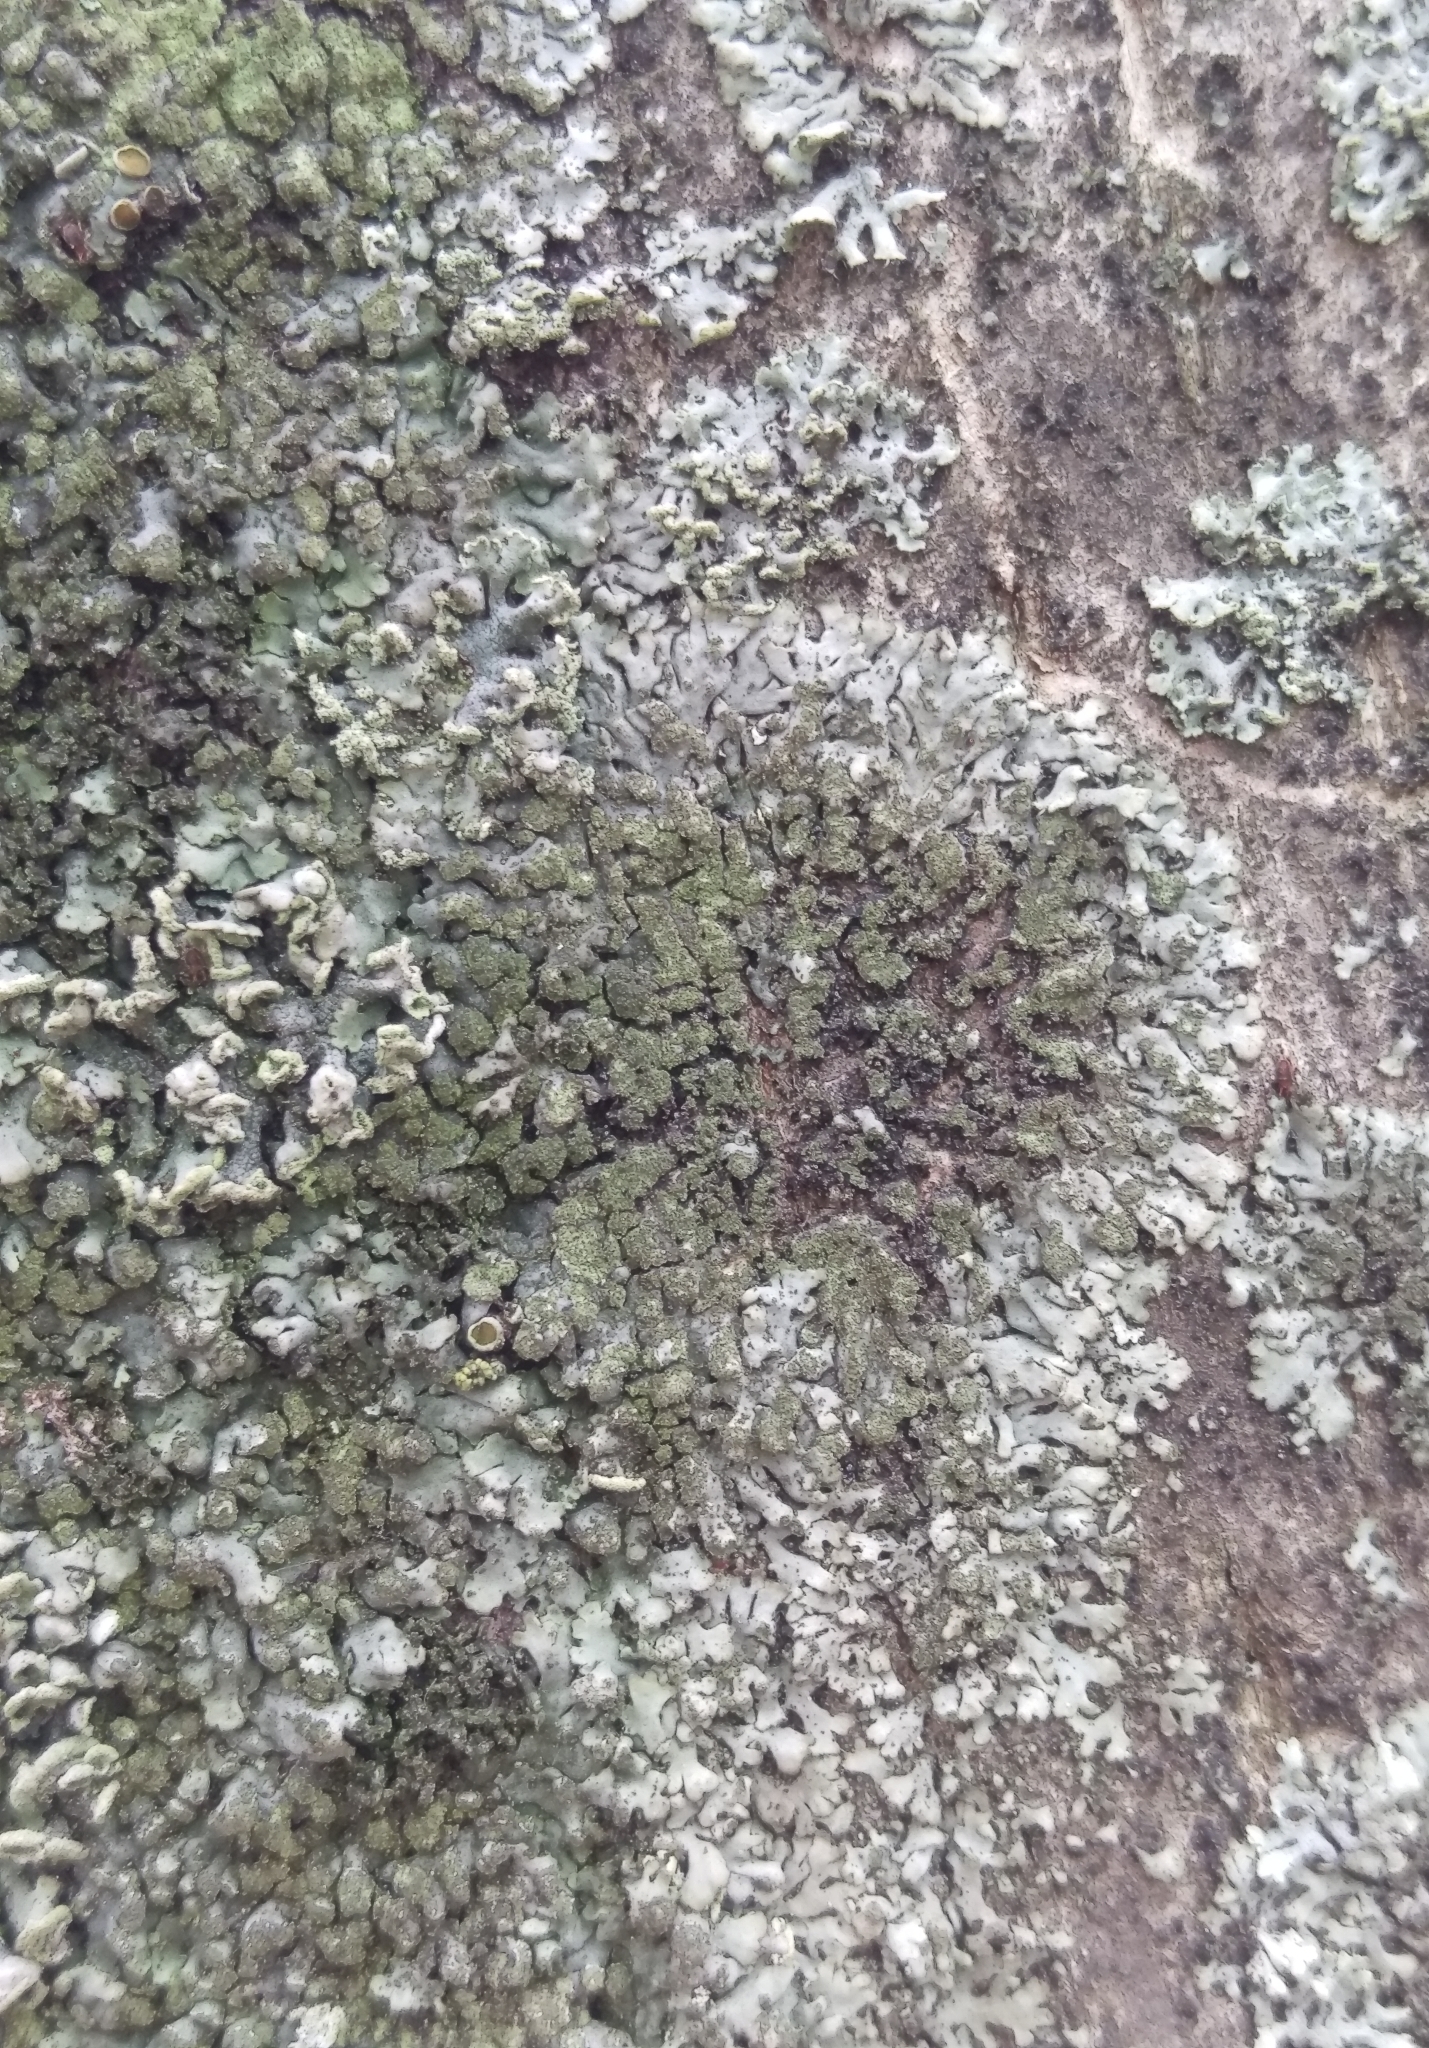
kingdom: Fungi
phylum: Ascomycota
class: Lecanoromycetes
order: Caliciales
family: Physciaceae
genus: Phaeophyscia
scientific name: Phaeophyscia orbicularis
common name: Mealy shadow lichen
